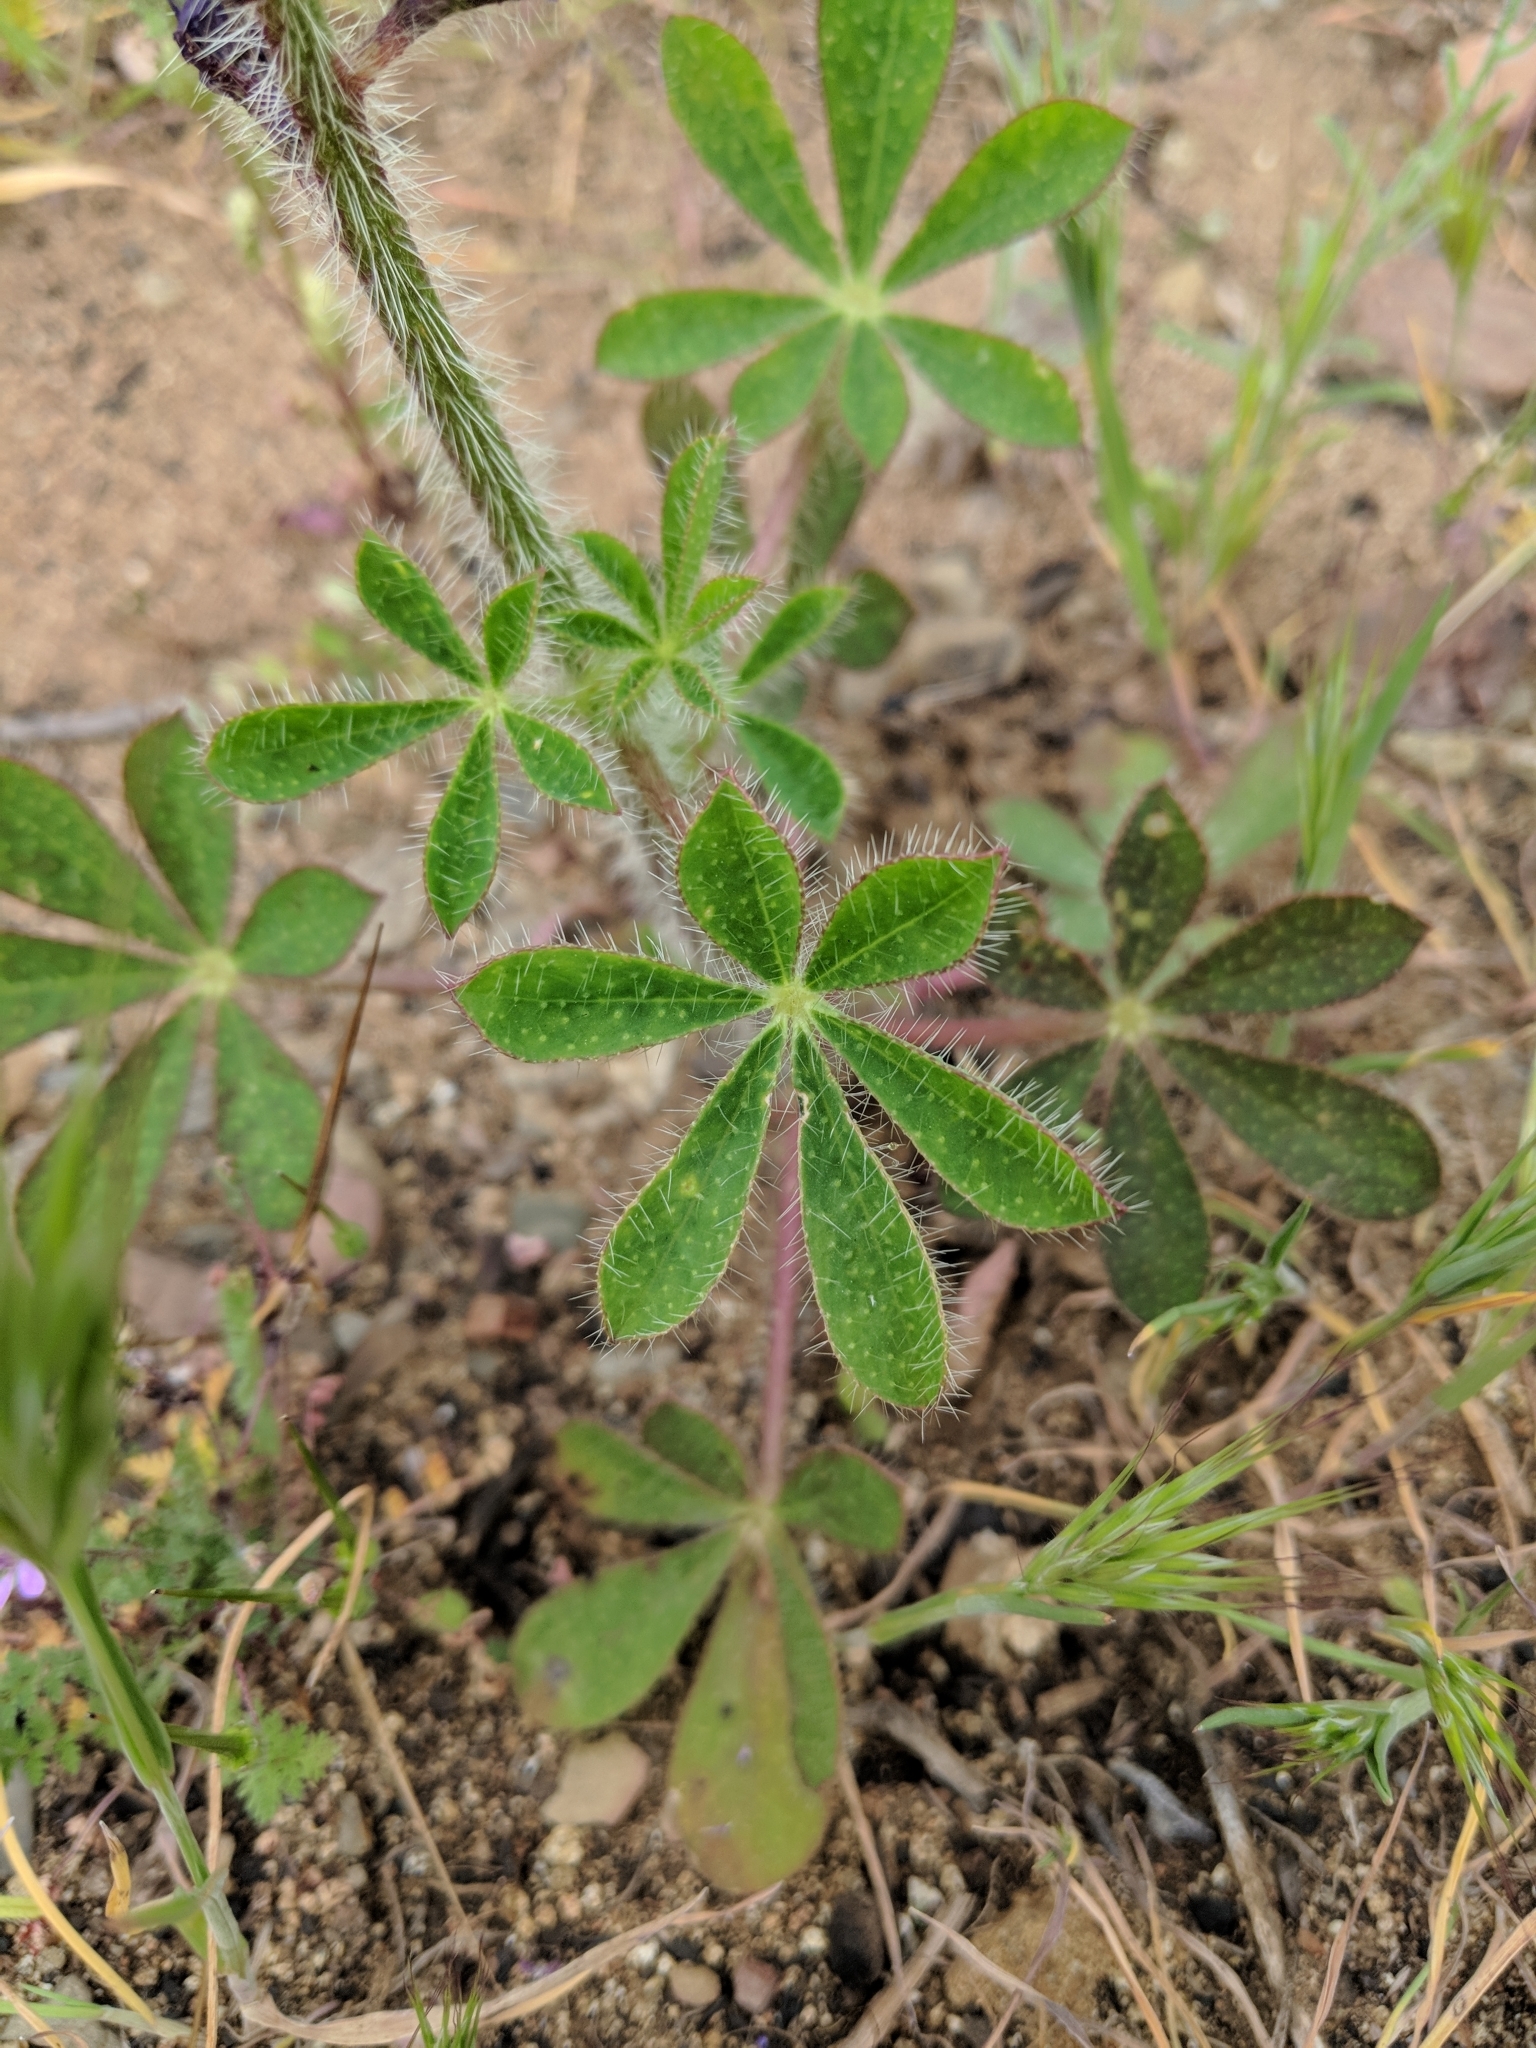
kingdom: Plantae
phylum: Tracheophyta
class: Magnoliopsida
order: Fabales
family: Fabaceae
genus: Lupinus
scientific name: Lupinus hirsutissimus
